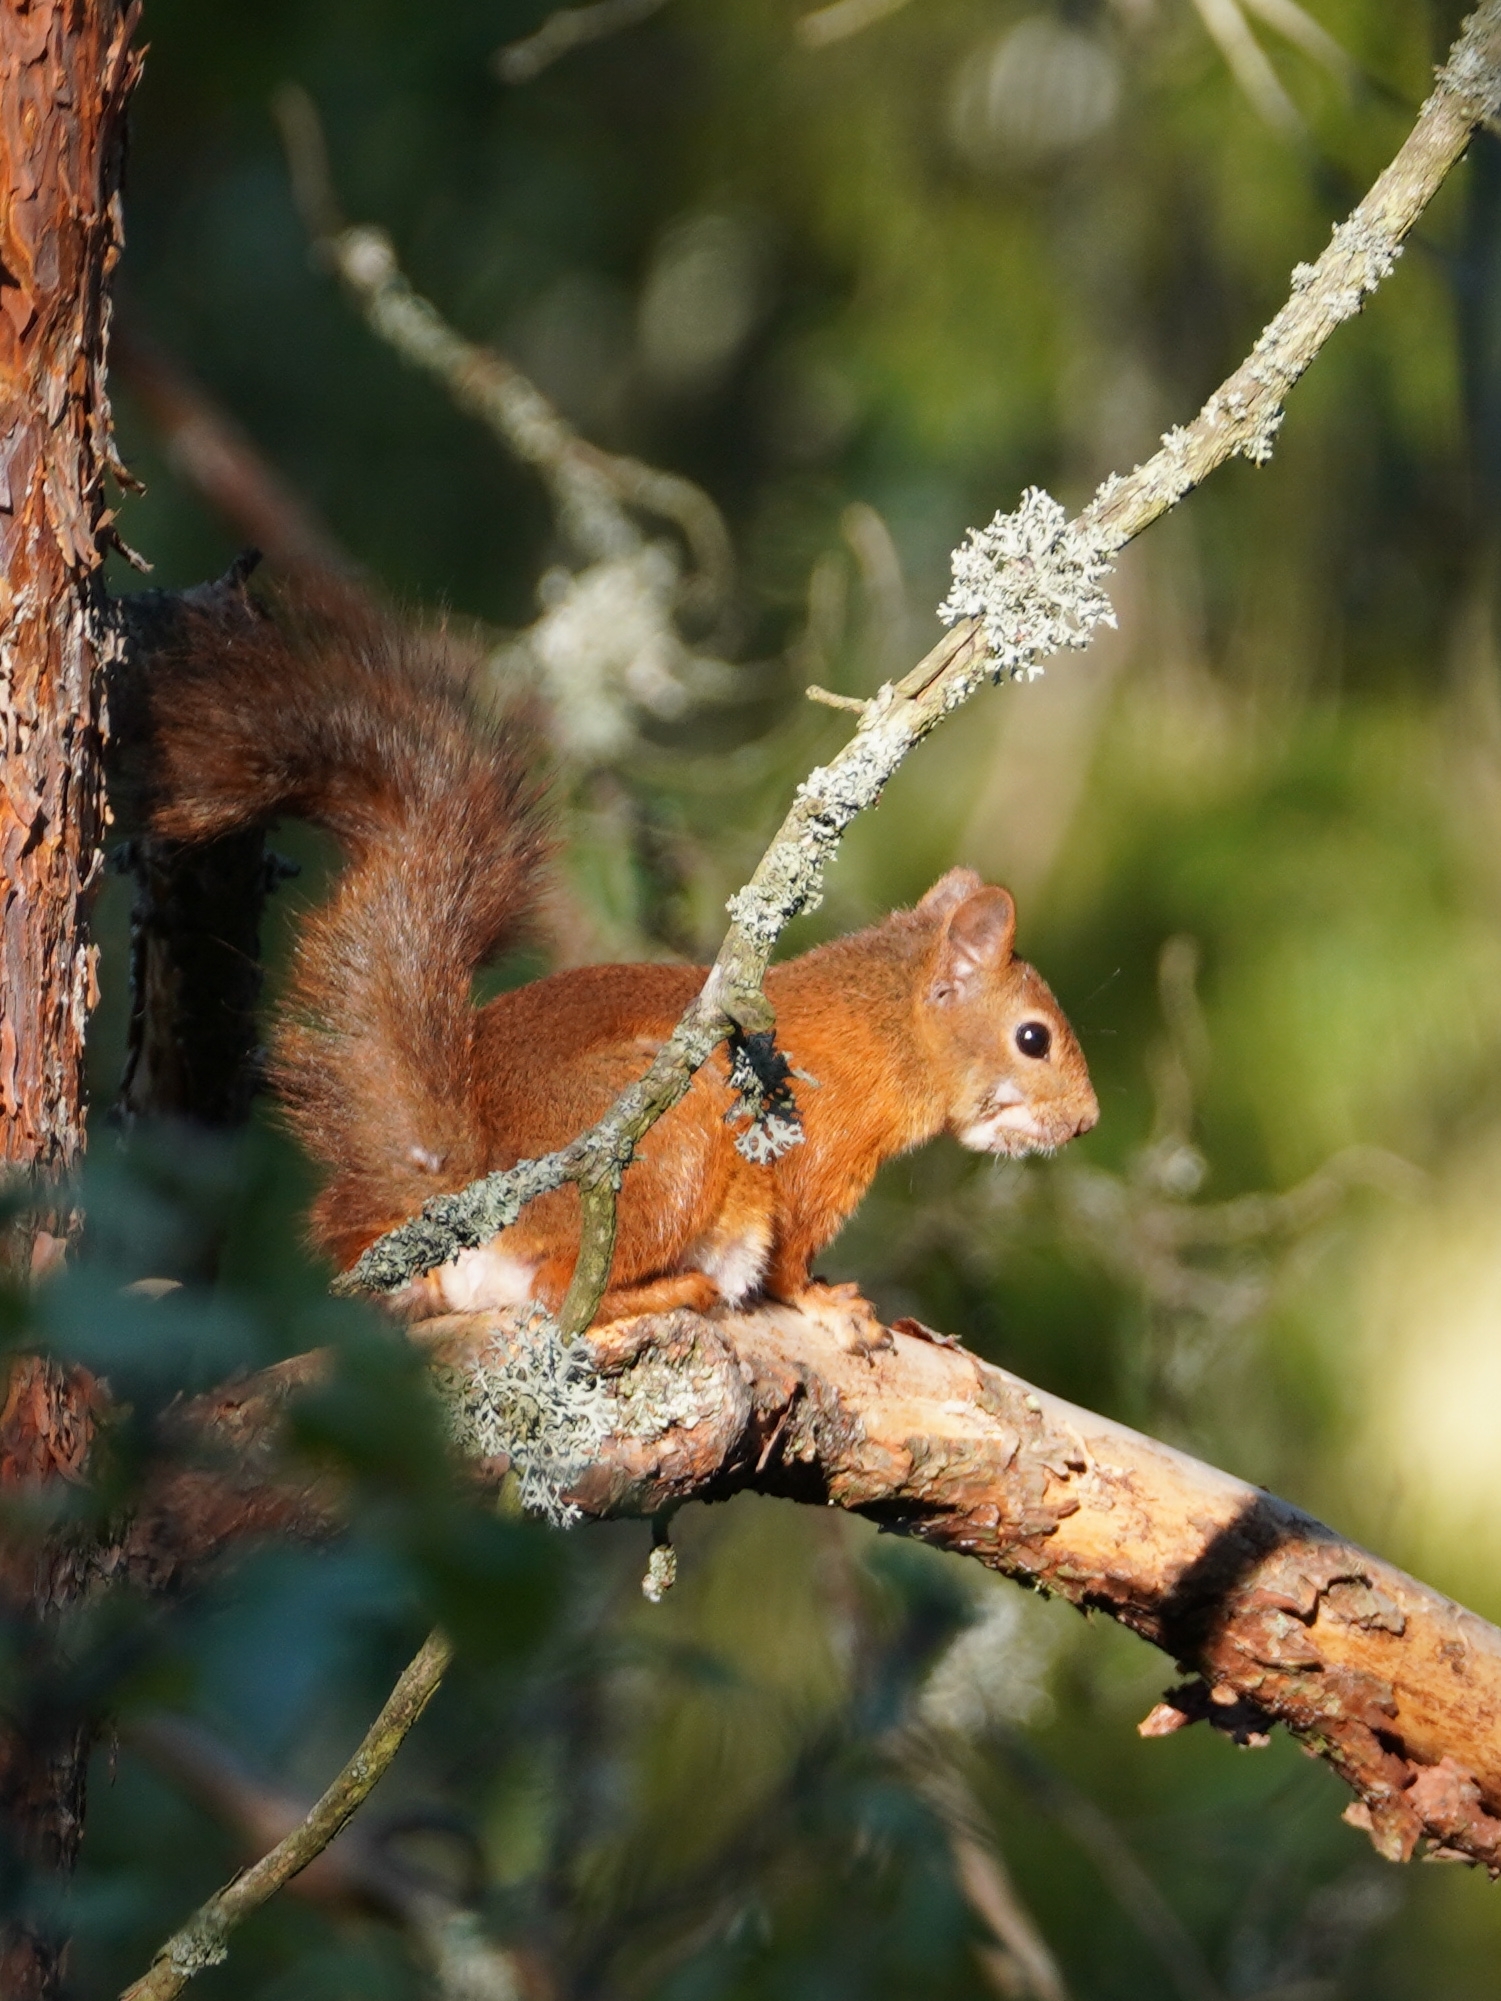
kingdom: Animalia
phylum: Chordata
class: Mammalia
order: Rodentia
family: Sciuridae
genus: Sciurus
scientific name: Sciurus vulgaris
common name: Eurasian red squirrel
